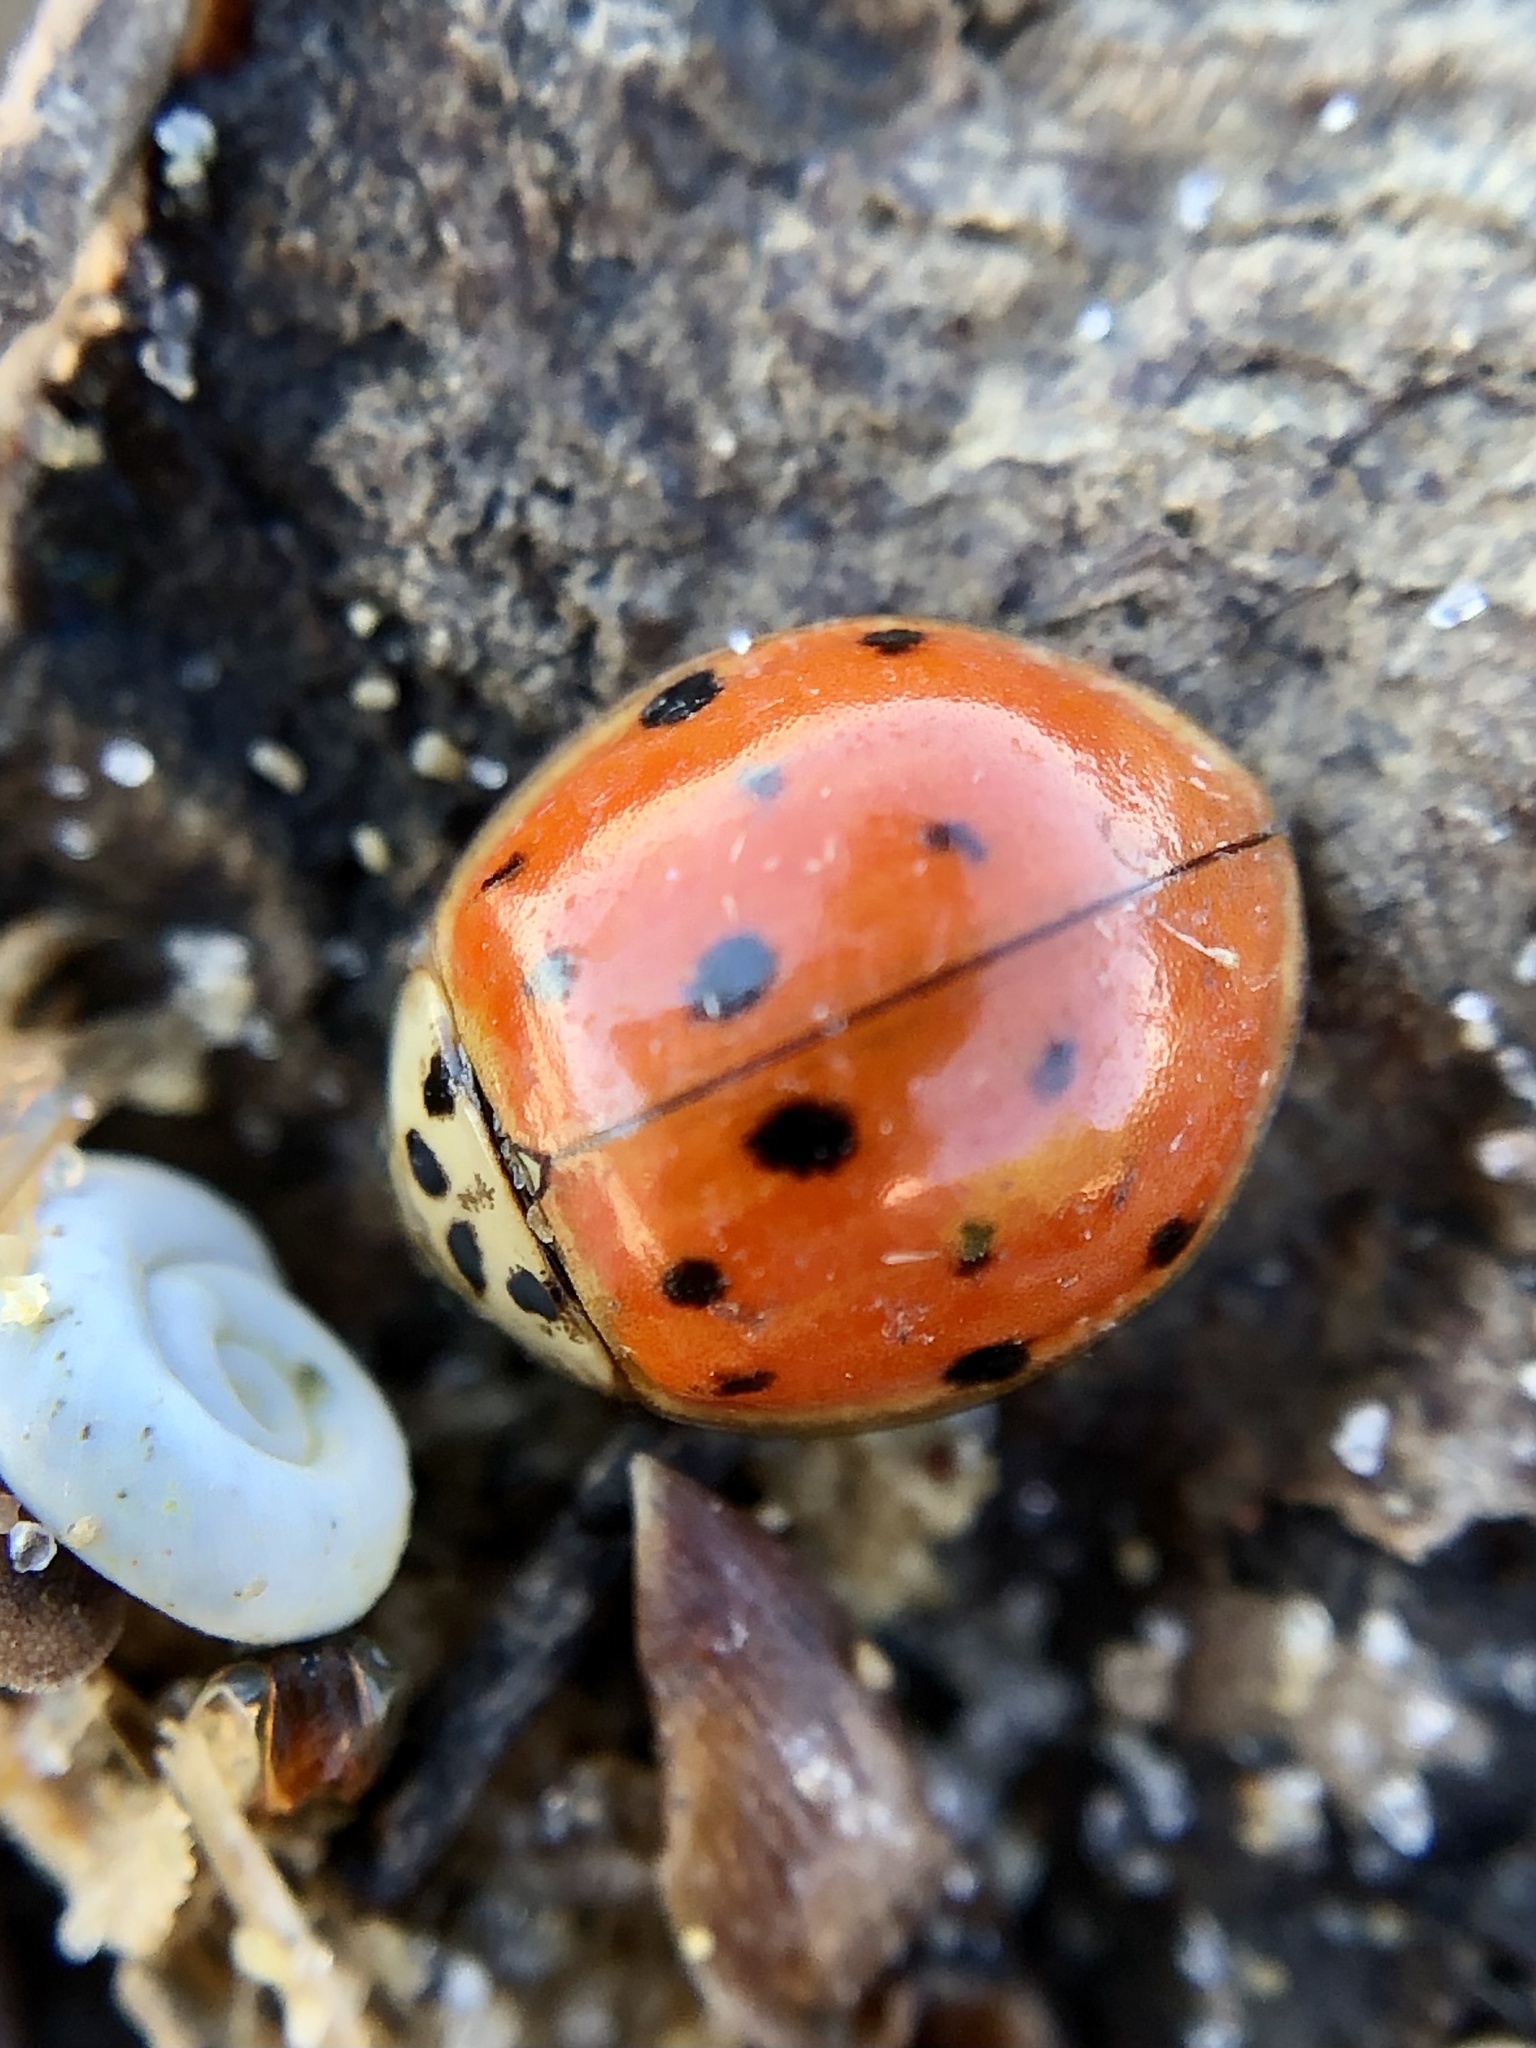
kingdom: Animalia
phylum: Arthropoda
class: Insecta
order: Coleoptera
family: Coccinellidae
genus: Harmonia
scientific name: Harmonia axyridis
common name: Harlequin ladybird
